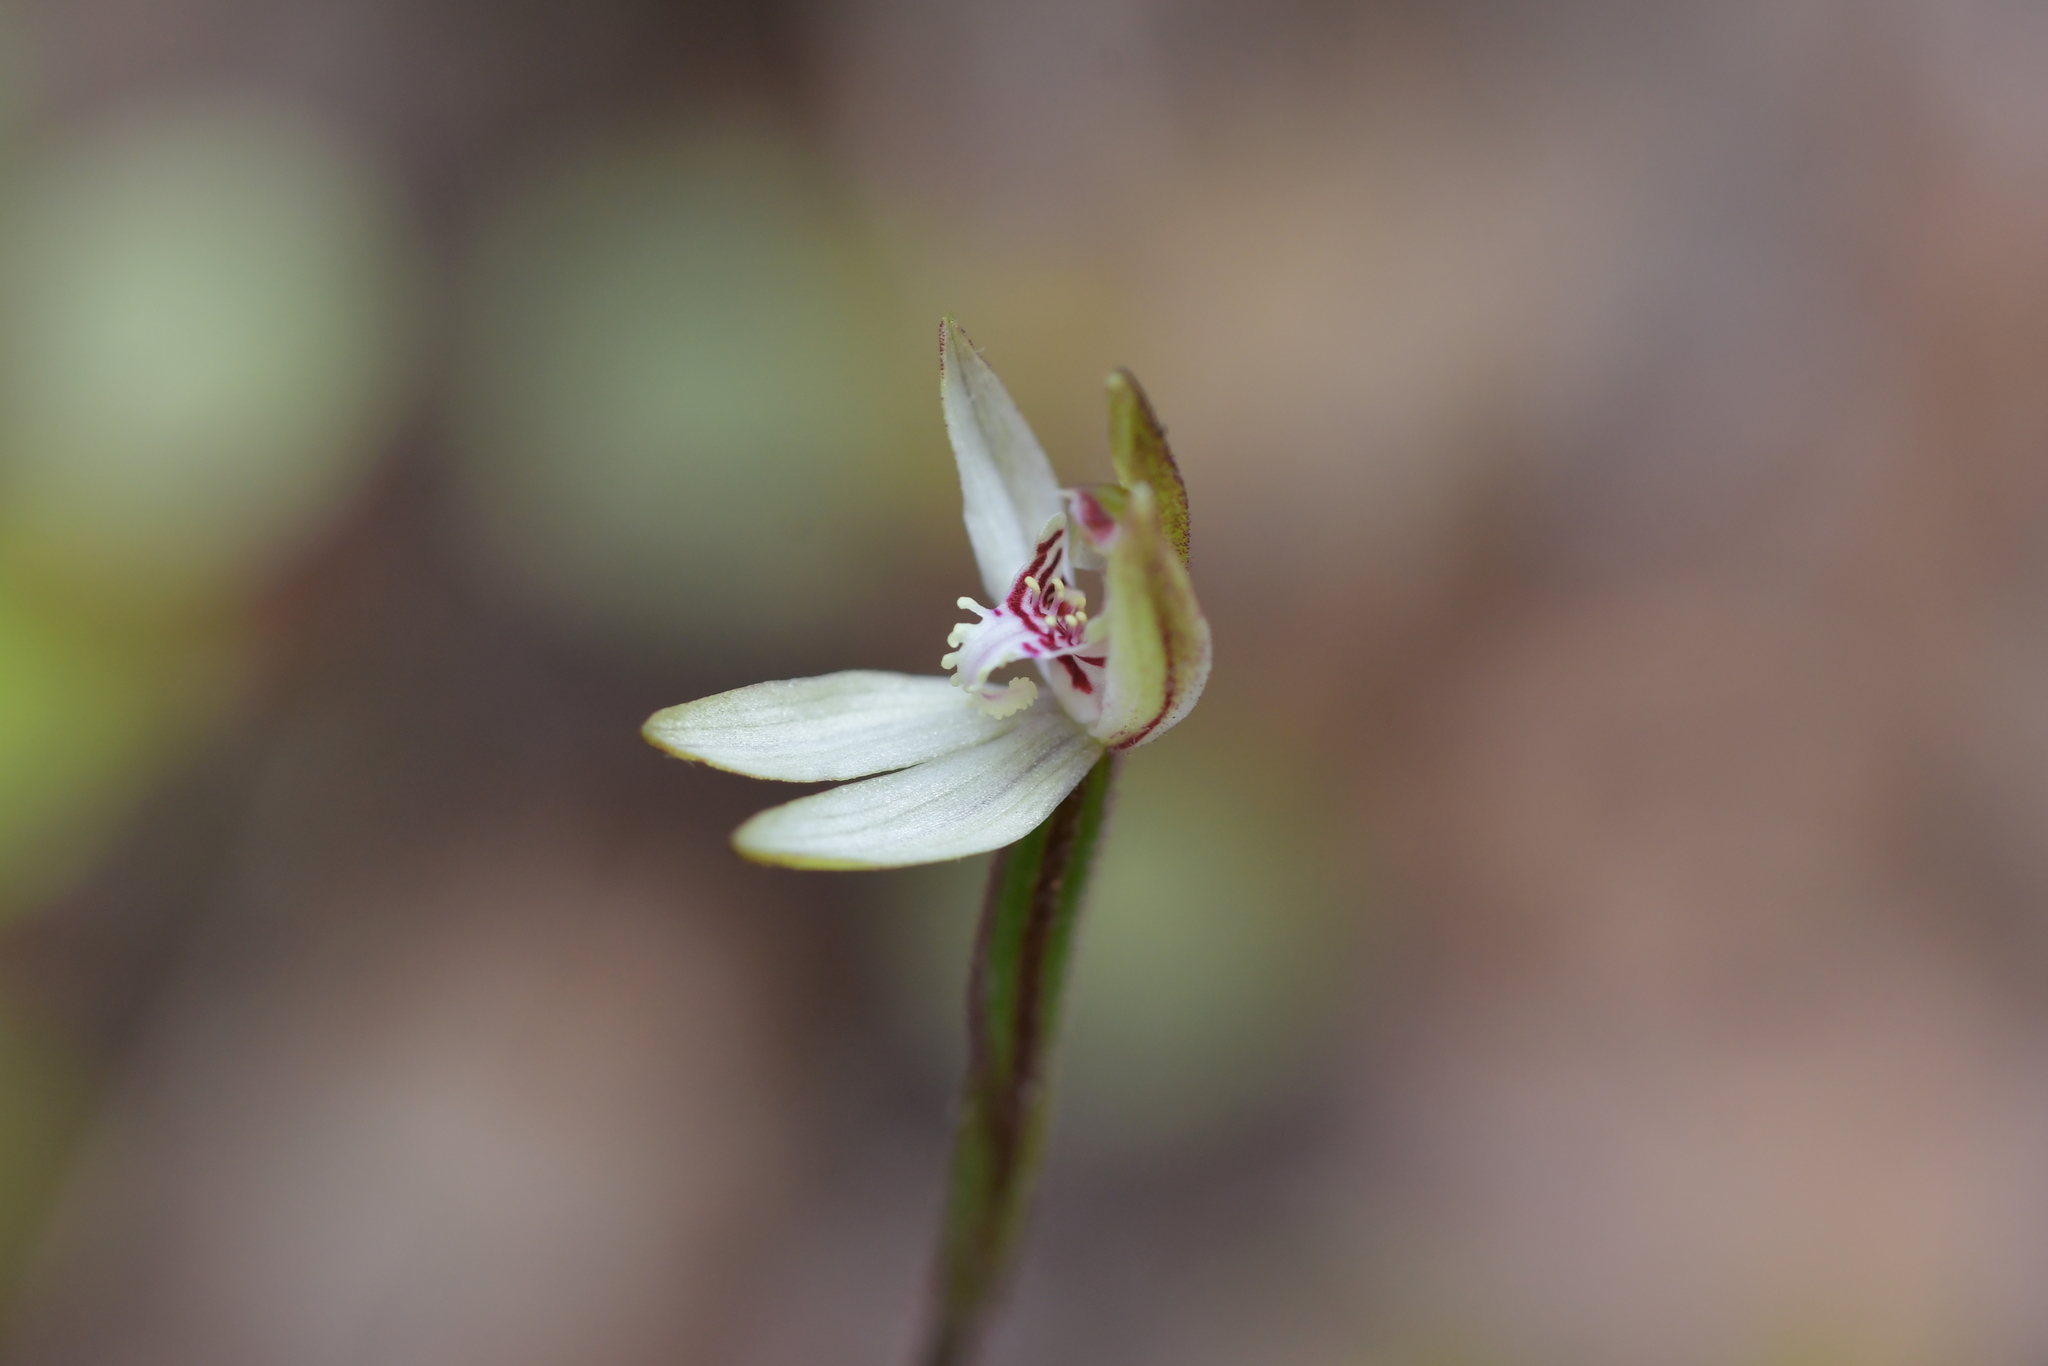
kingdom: Plantae
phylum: Tracheophyta
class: Liliopsida
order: Asparagales
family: Orchidaceae
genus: Caladenia
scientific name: Caladenia chlorostyla
